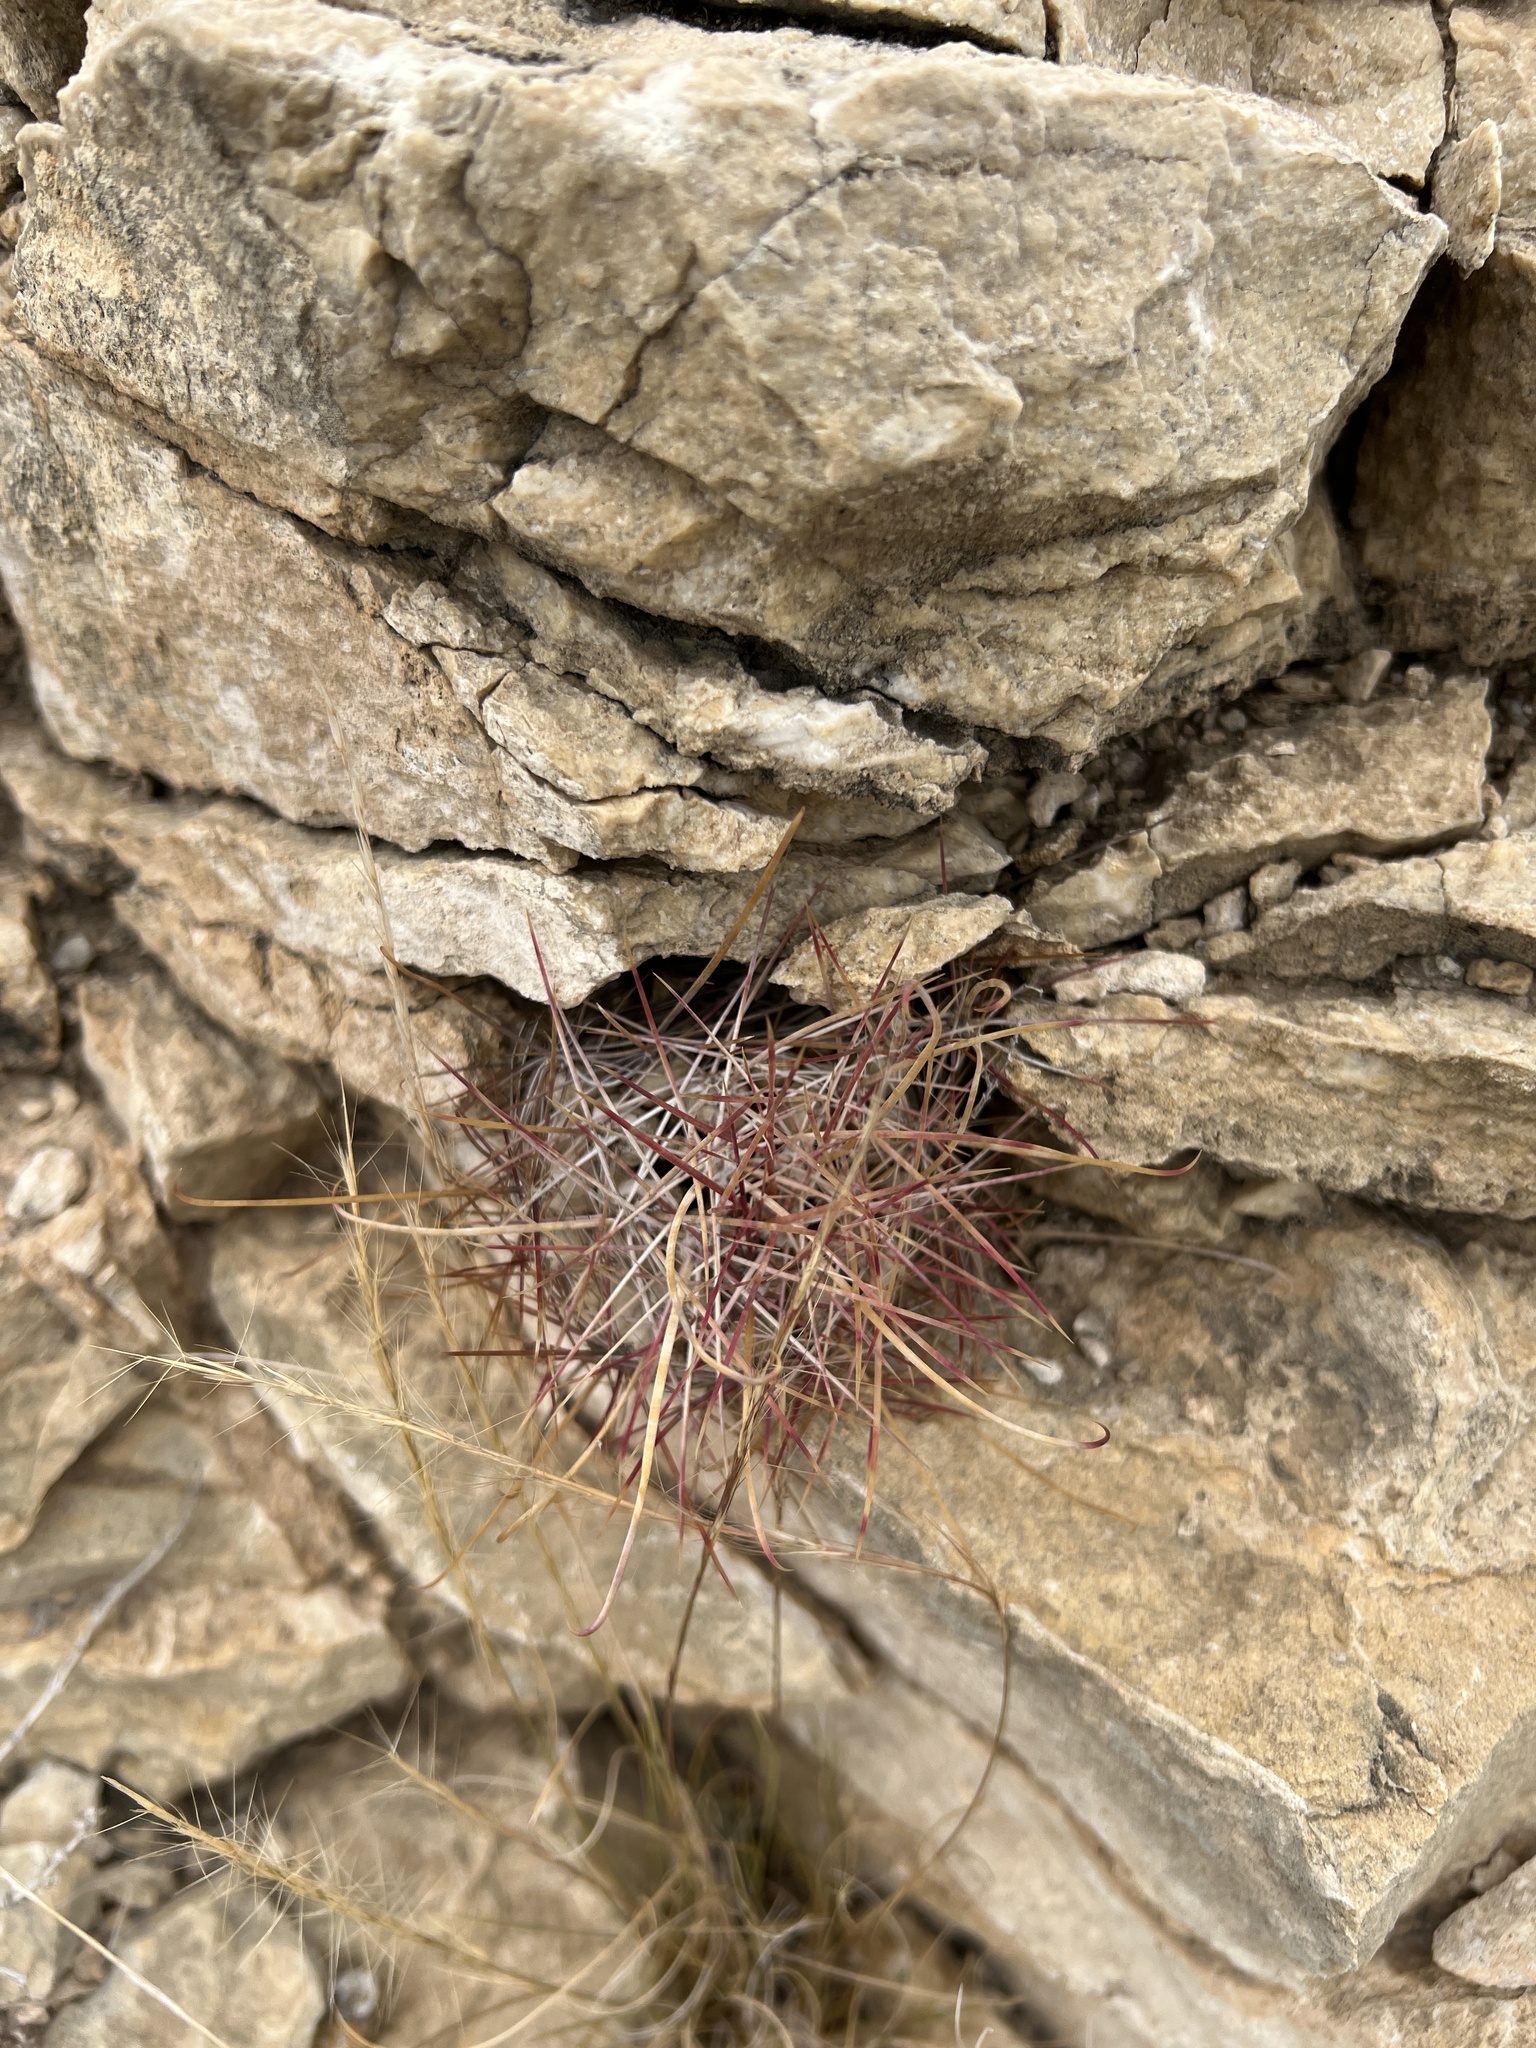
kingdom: Plantae
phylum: Tracheophyta
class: Magnoliopsida
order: Caryophyllales
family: Cactaceae
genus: Bisnaga
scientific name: Bisnaga hamatacantha
